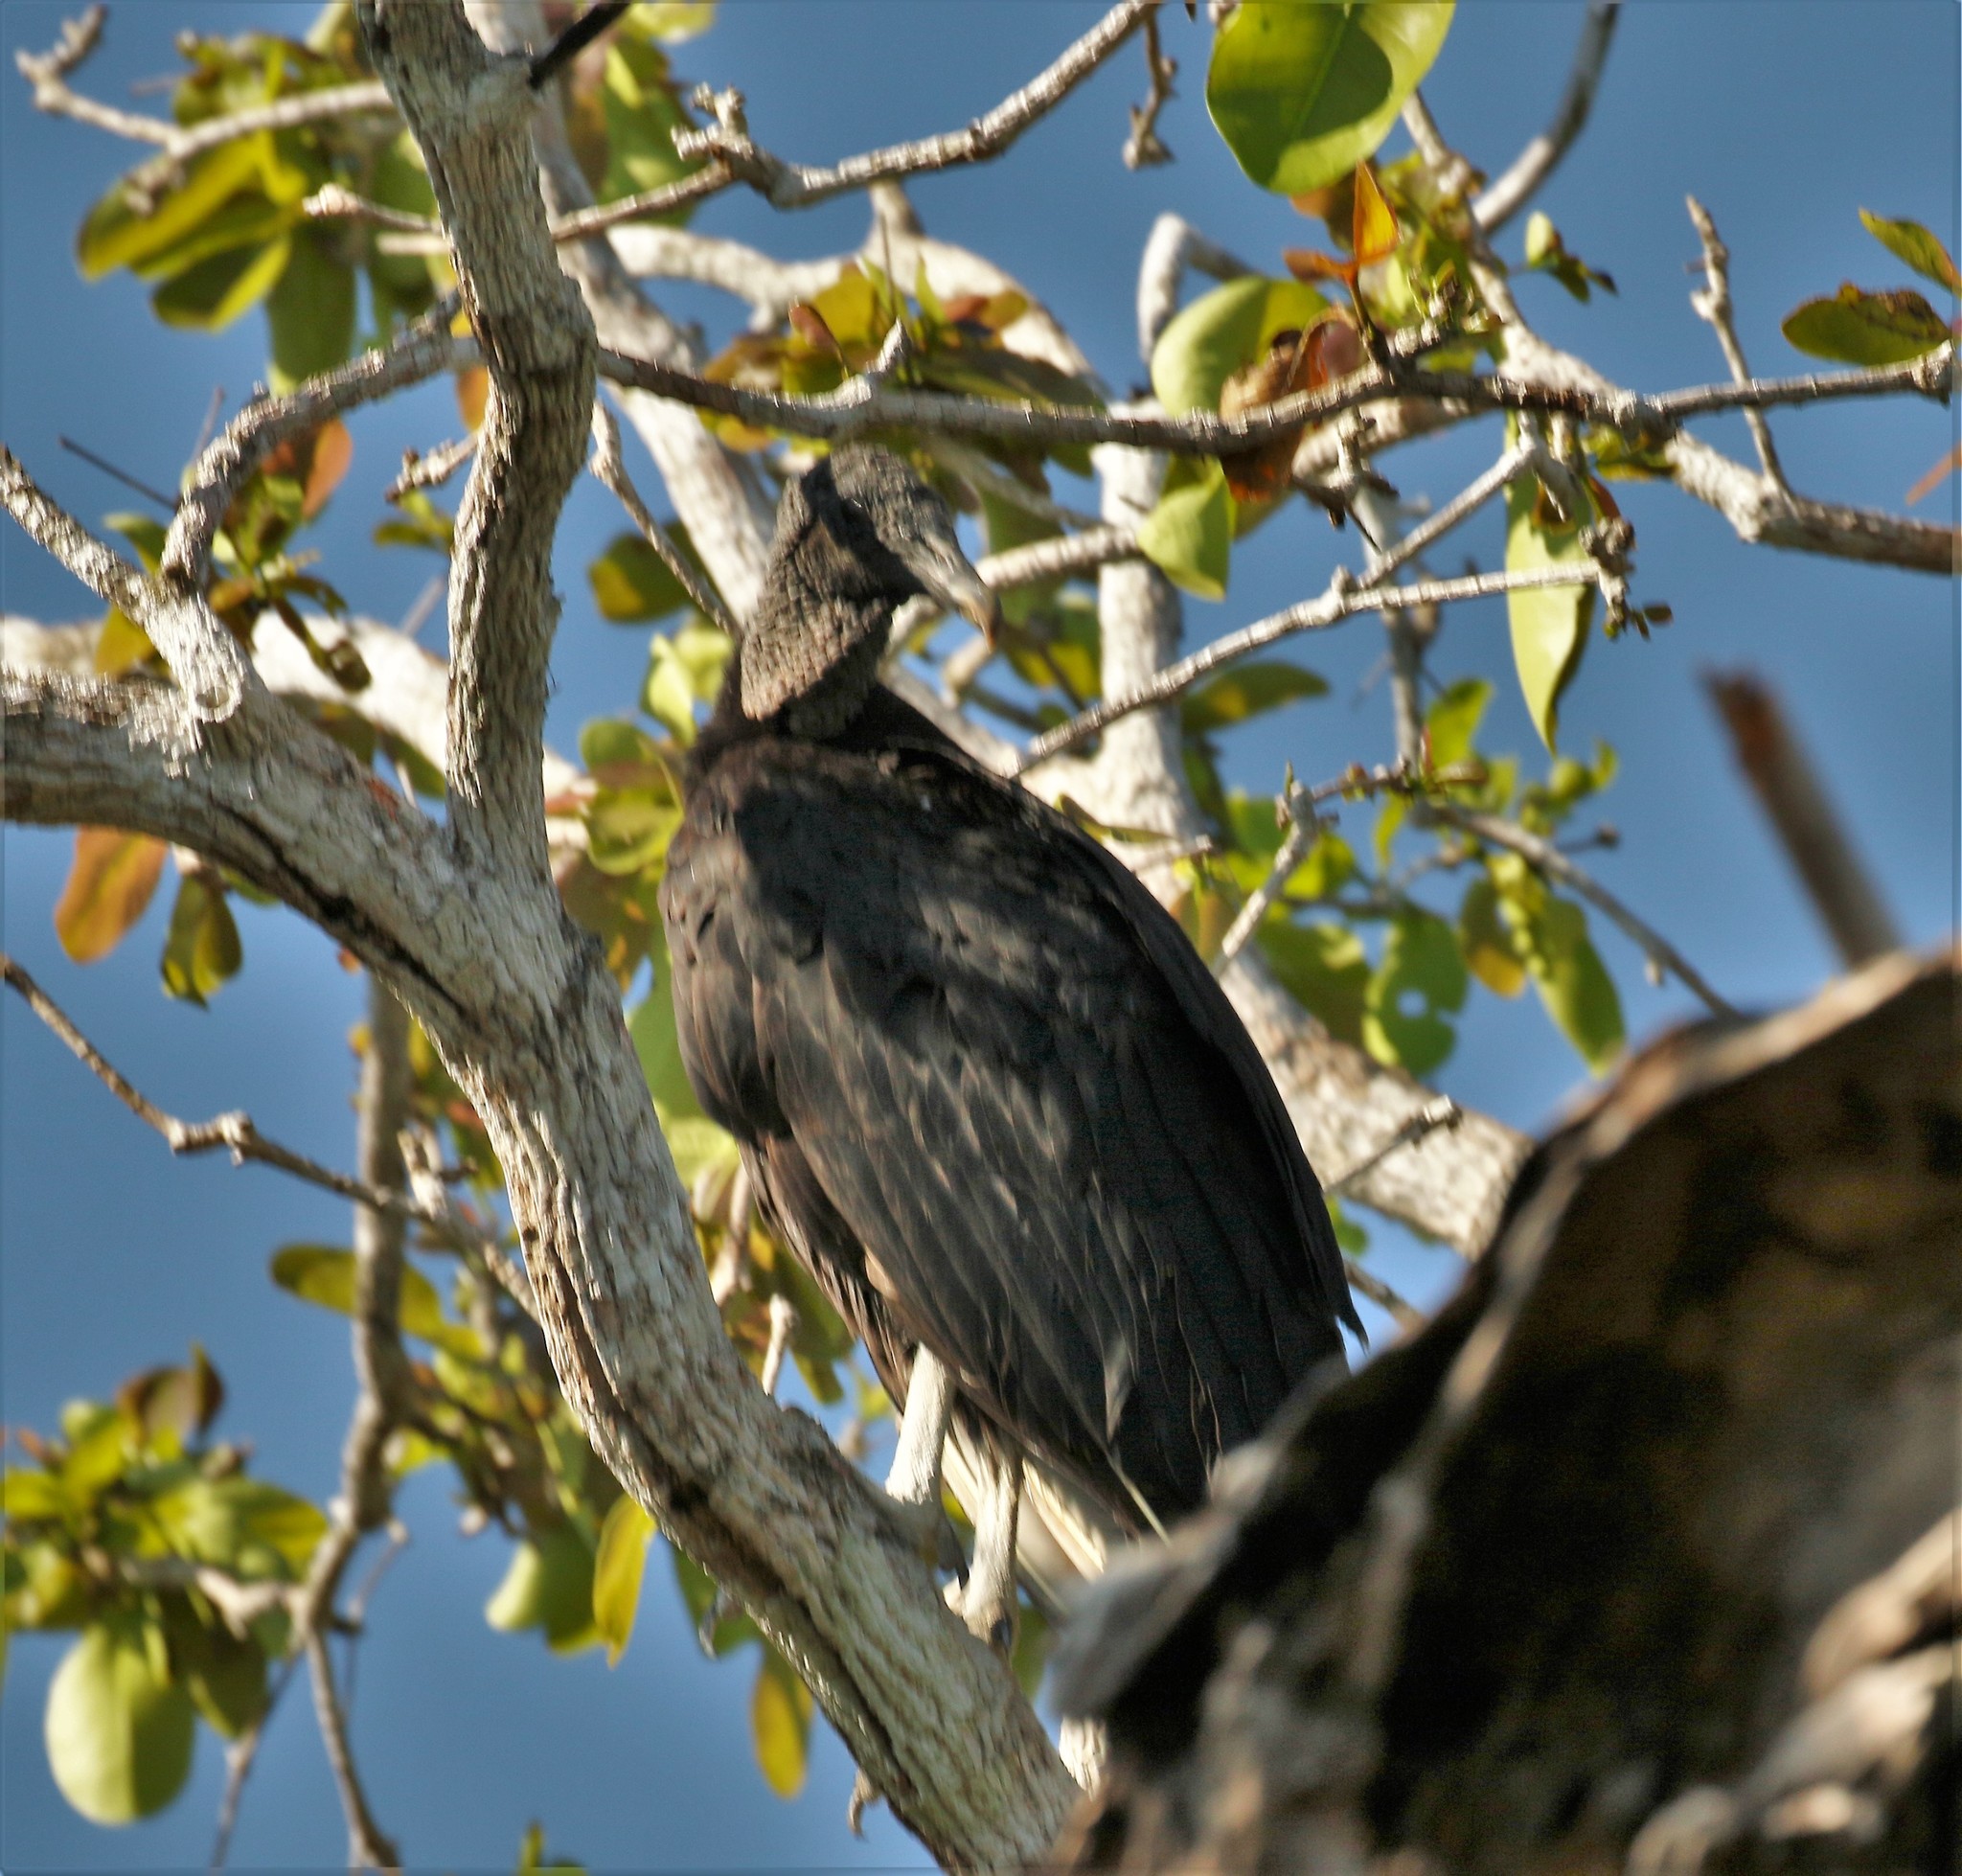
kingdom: Animalia
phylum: Chordata
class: Aves
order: Accipitriformes
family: Cathartidae
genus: Coragyps
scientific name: Coragyps atratus
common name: Black vulture
